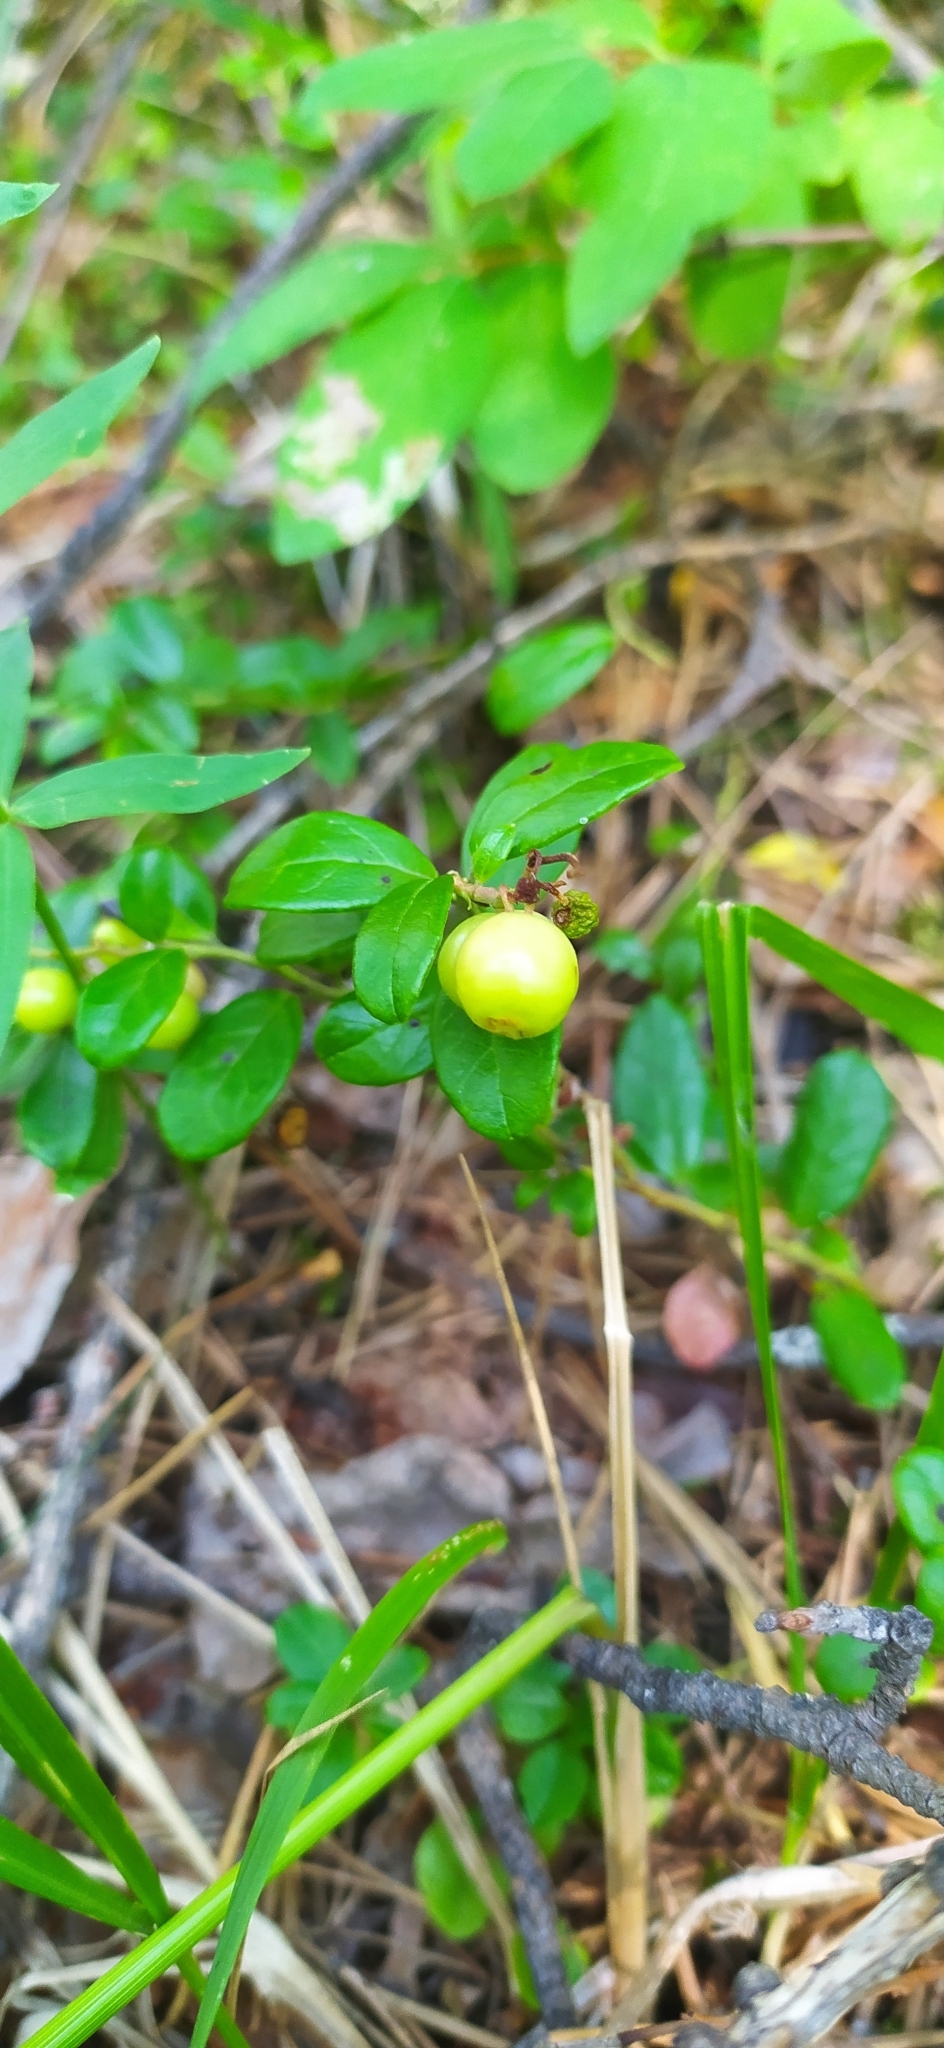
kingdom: Plantae
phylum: Tracheophyta
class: Magnoliopsida
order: Ericales
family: Ericaceae
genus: Vaccinium
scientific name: Vaccinium vitis-idaea
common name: Cowberry
